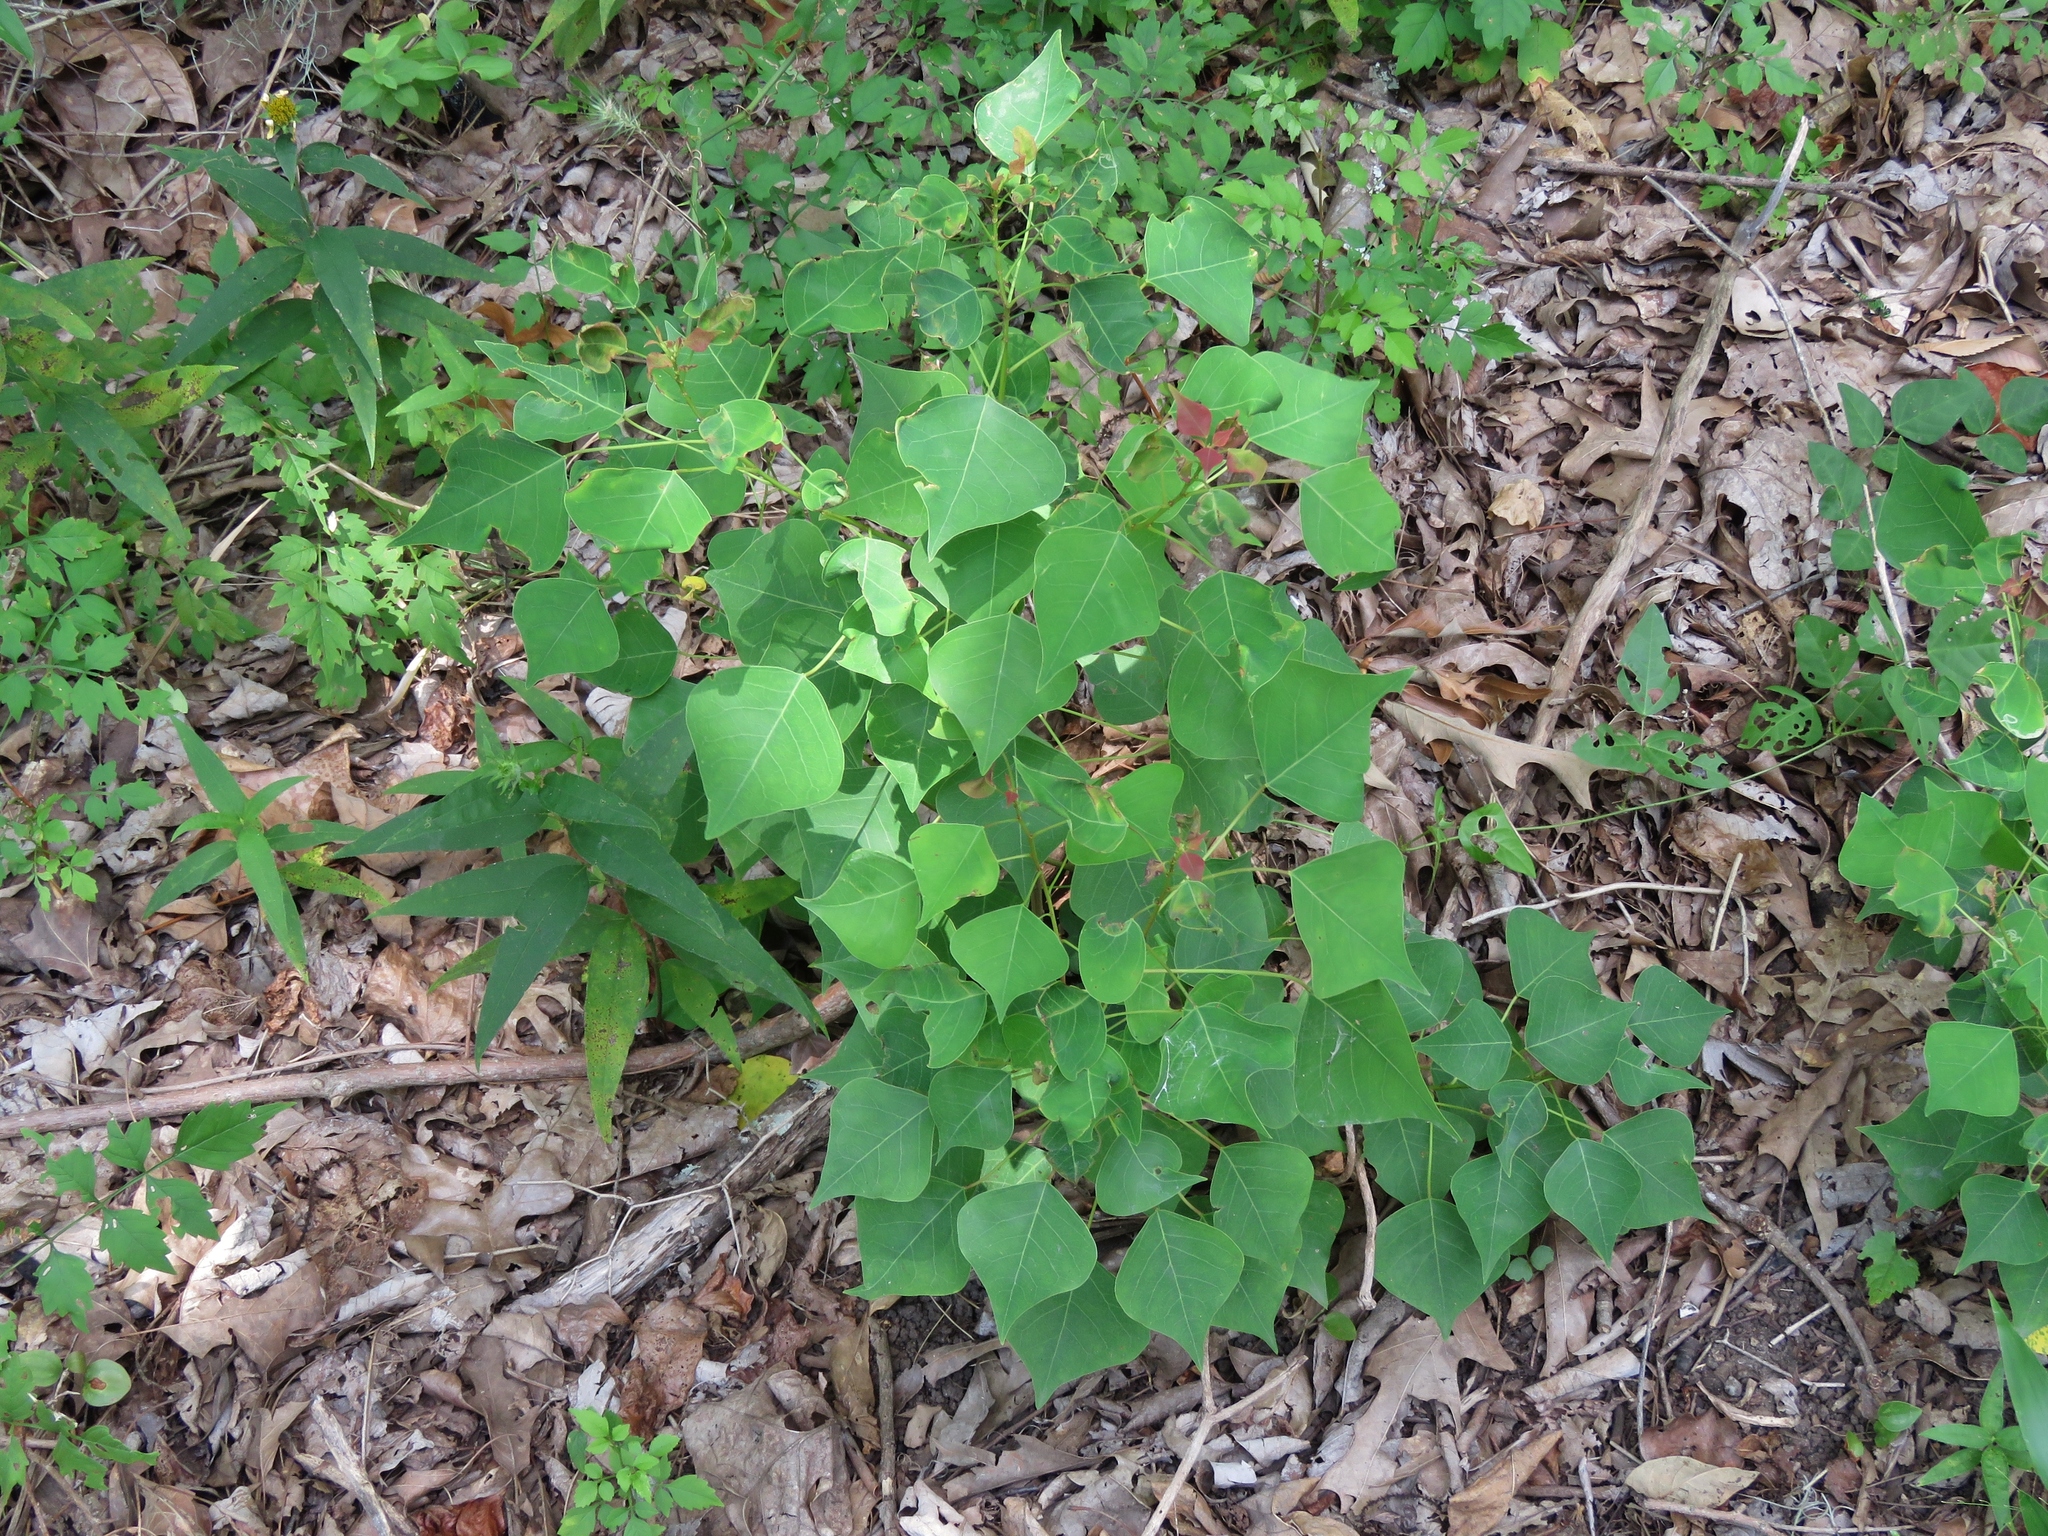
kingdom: Plantae
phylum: Tracheophyta
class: Magnoliopsida
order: Malpighiales
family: Euphorbiaceae
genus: Triadica
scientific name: Triadica sebifera
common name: Chinese tallow
